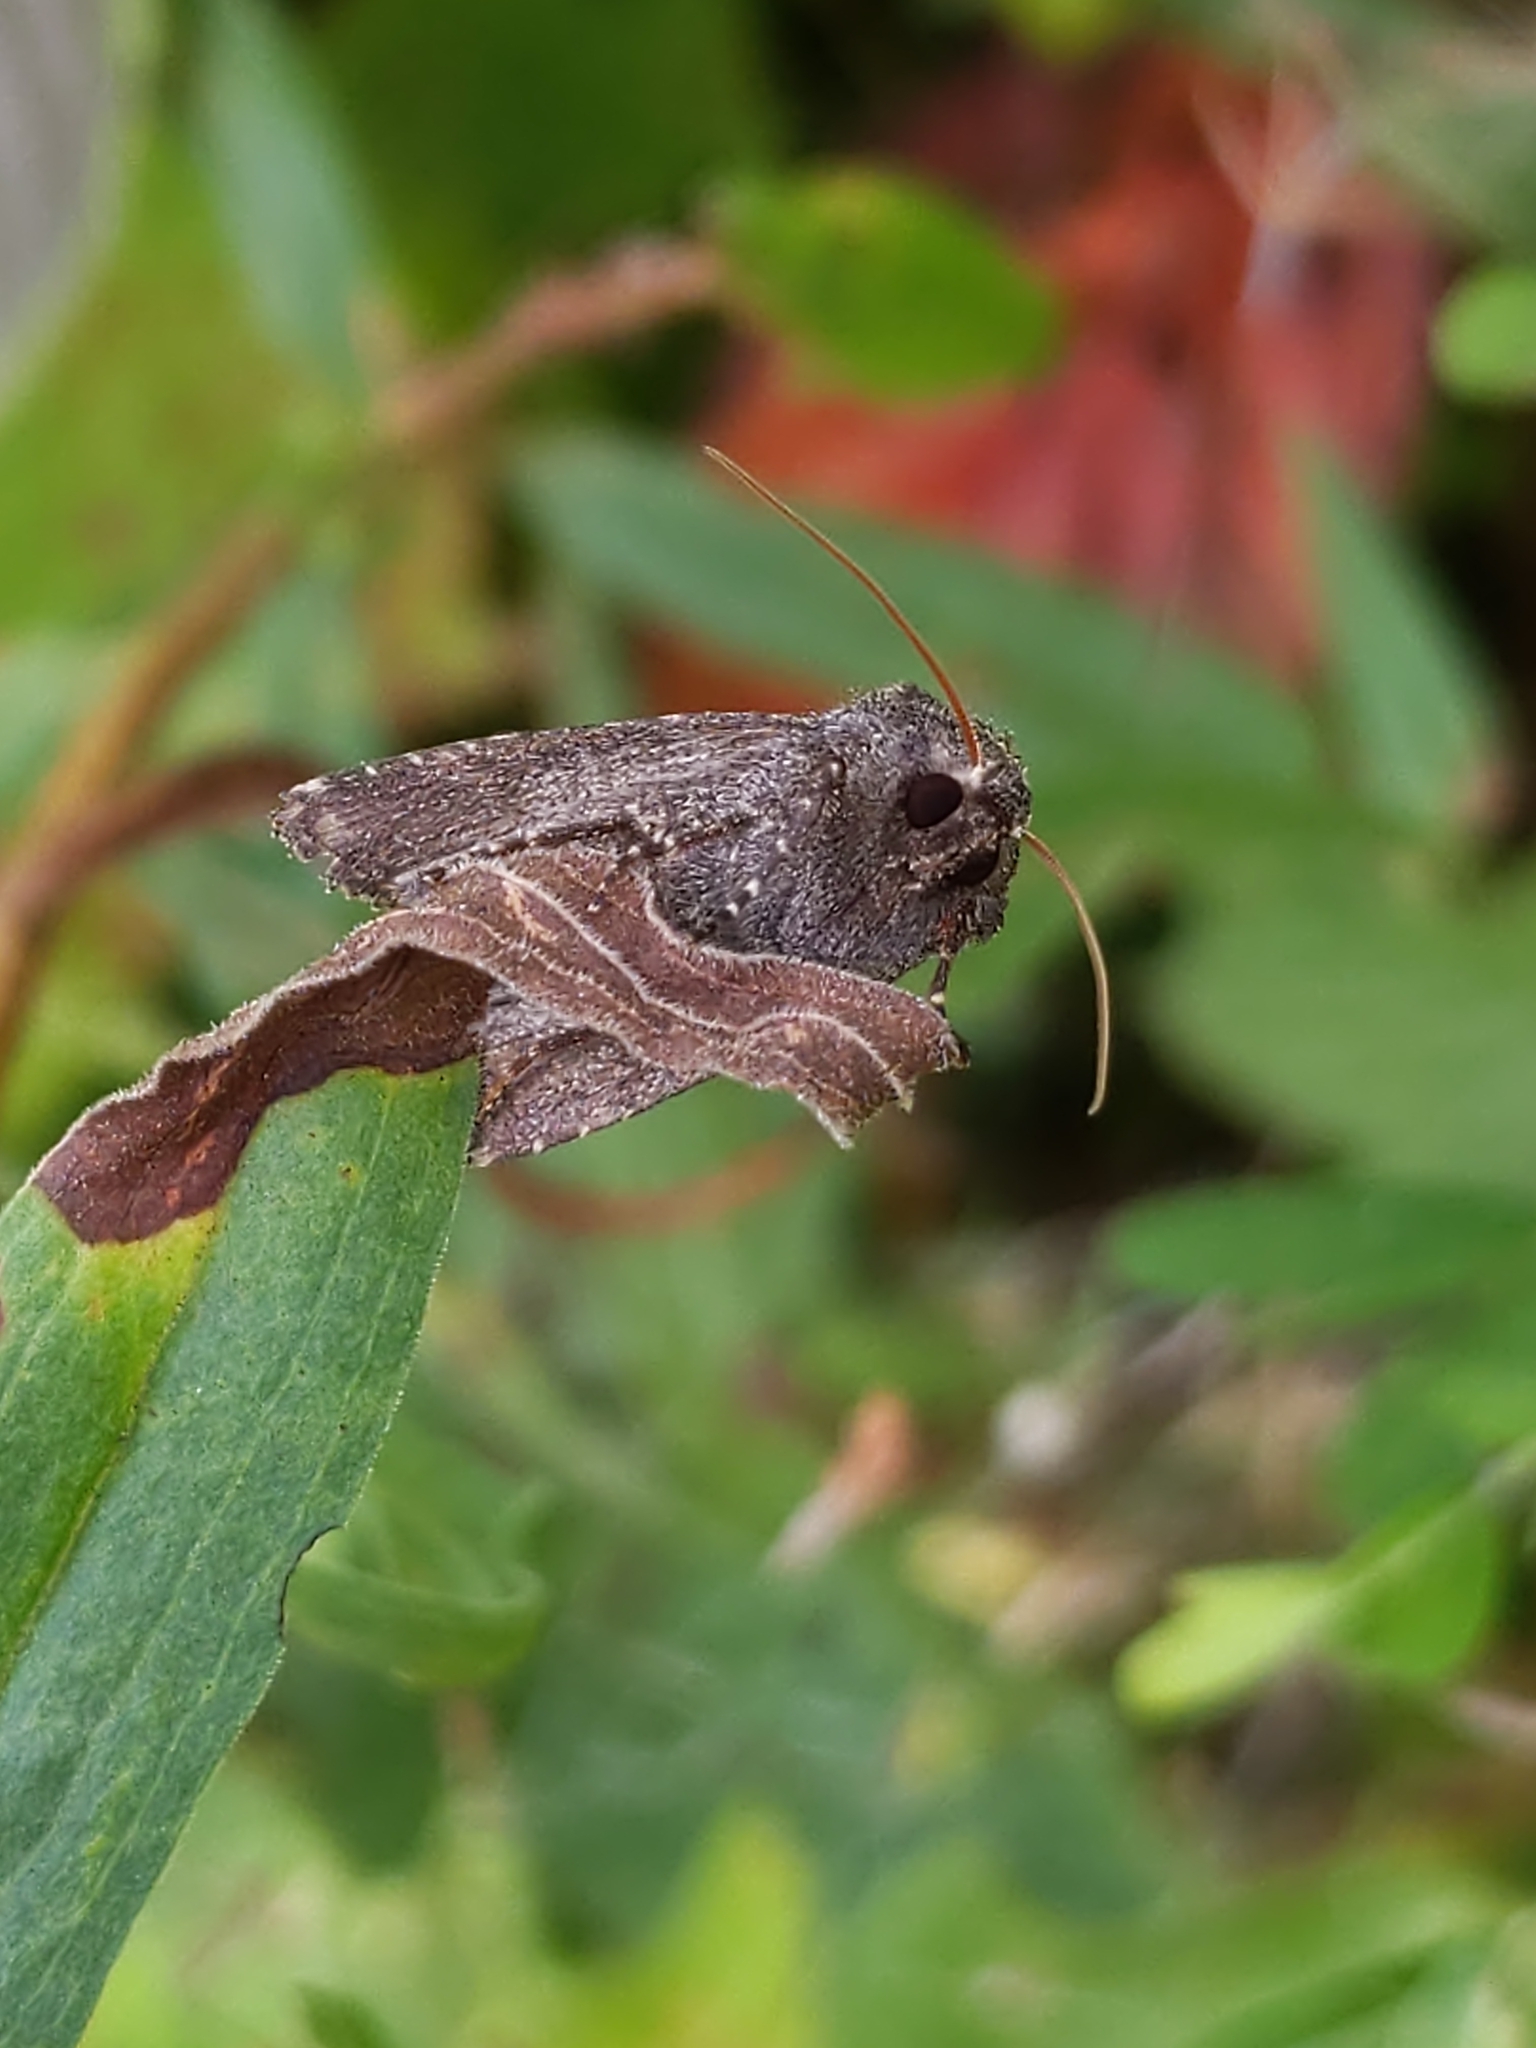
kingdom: Animalia
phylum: Arthropoda
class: Insecta
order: Lepidoptera
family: Noctuidae
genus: Lacinipolia
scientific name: Lacinipolia renigera
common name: Kidney-spotted minor
